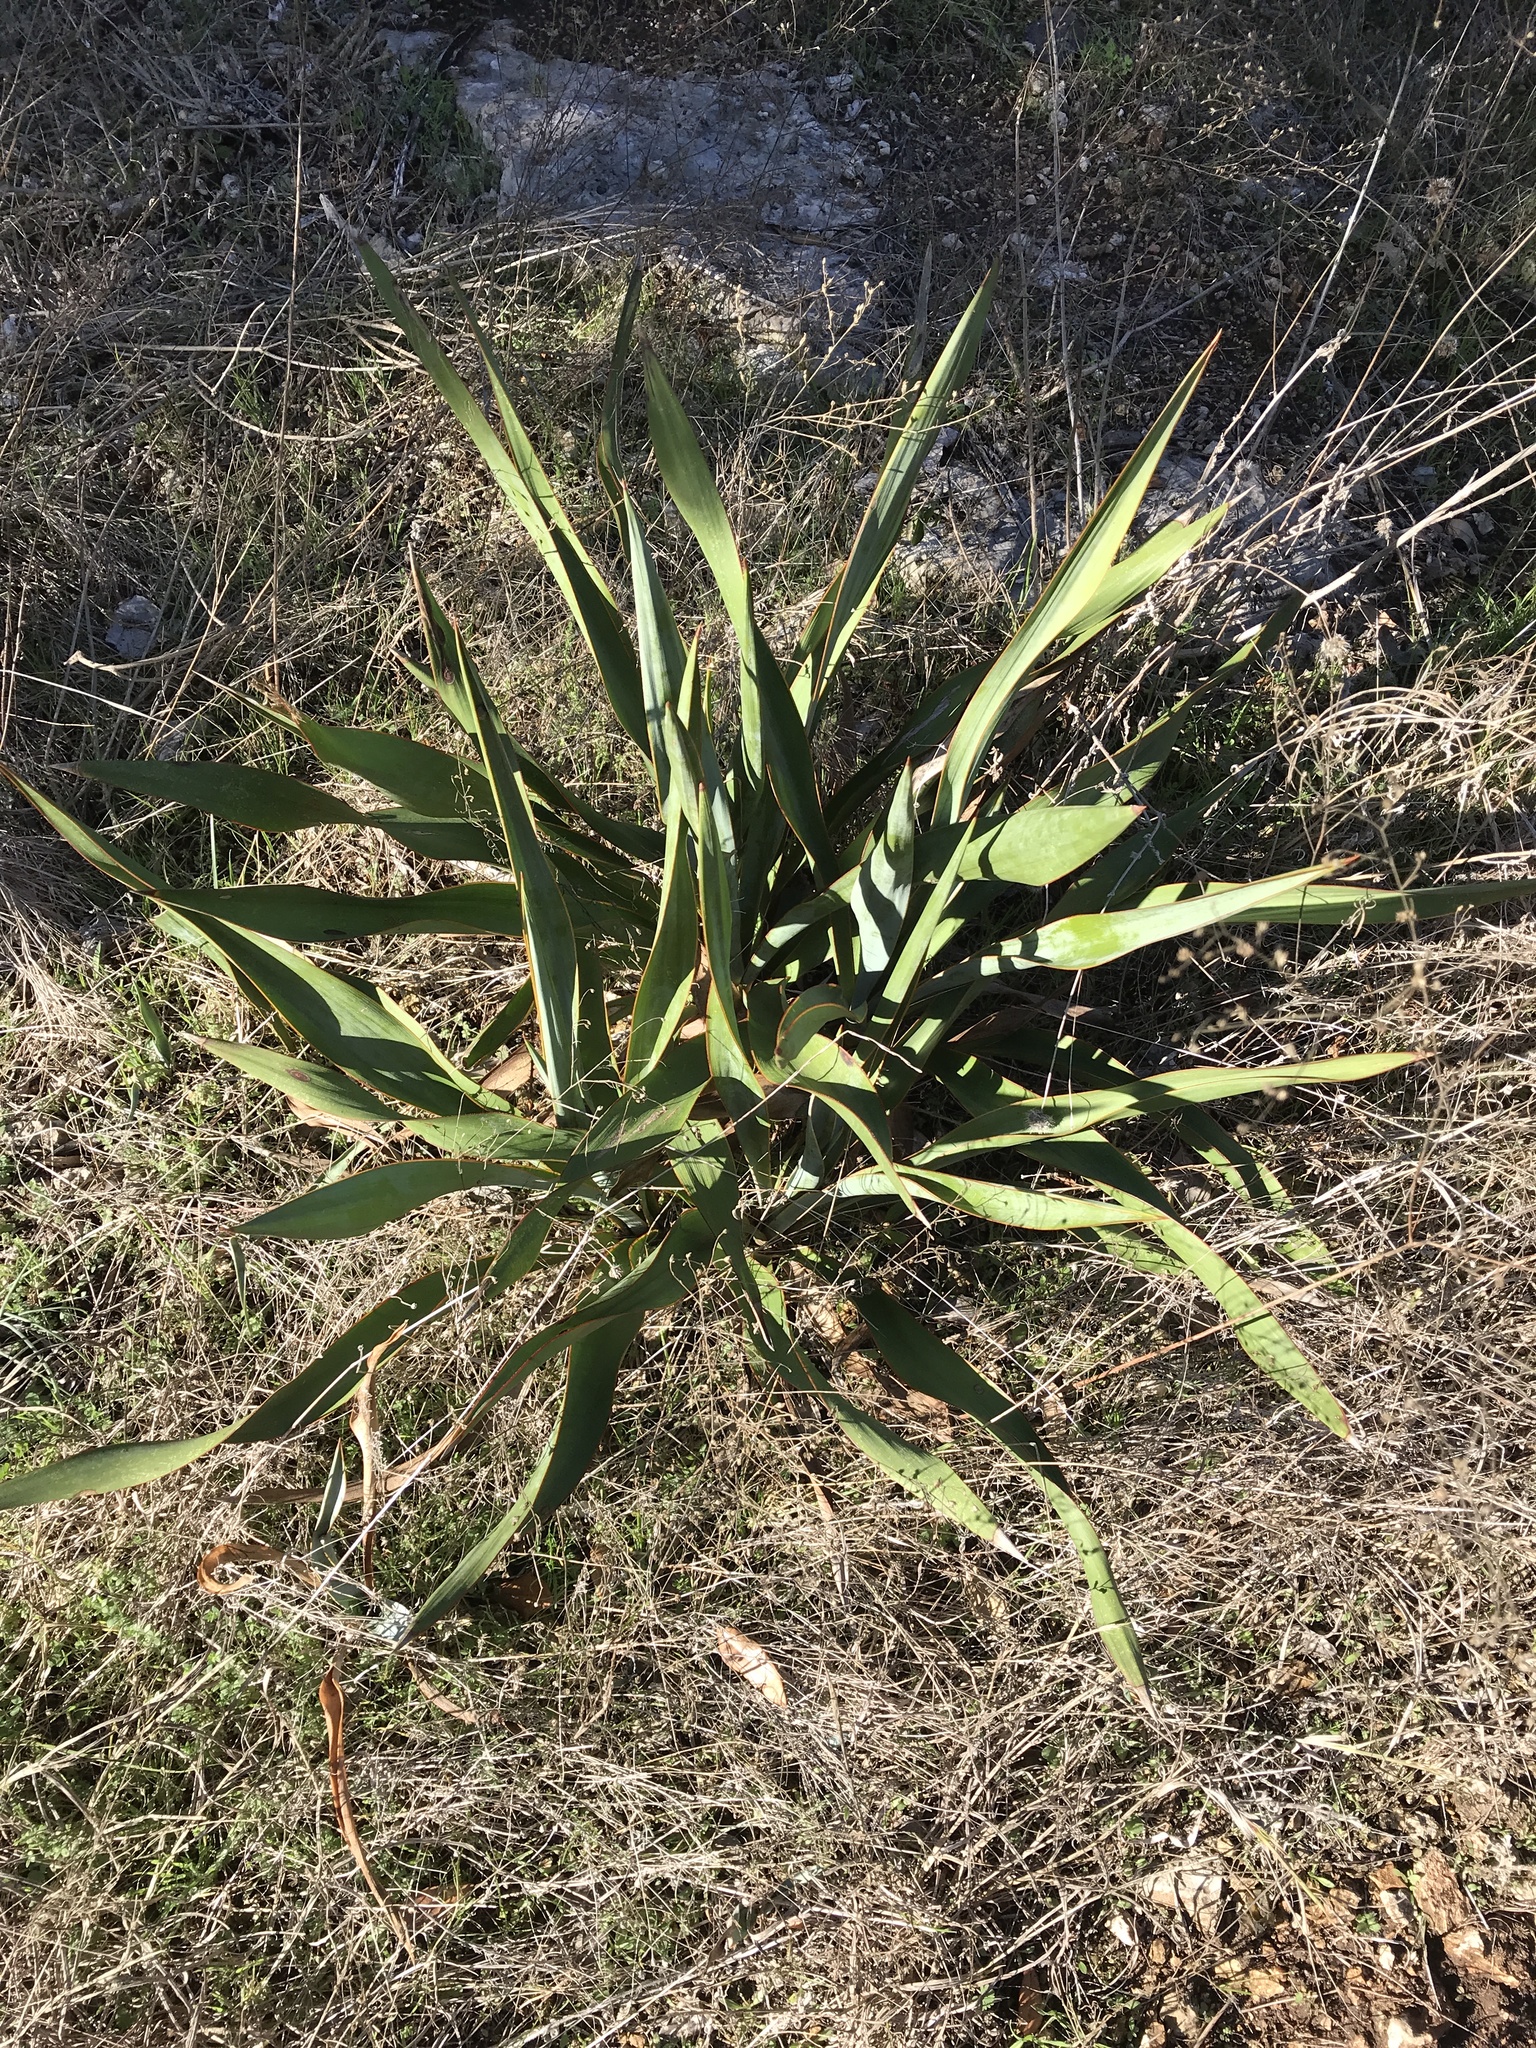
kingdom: Plantae
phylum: Tracheophyta
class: Liliopsida
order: Asparagales
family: Asparagaceae
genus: Yucca
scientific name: Yucca rupicola
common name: Twisted-leaf spanish-dagger
